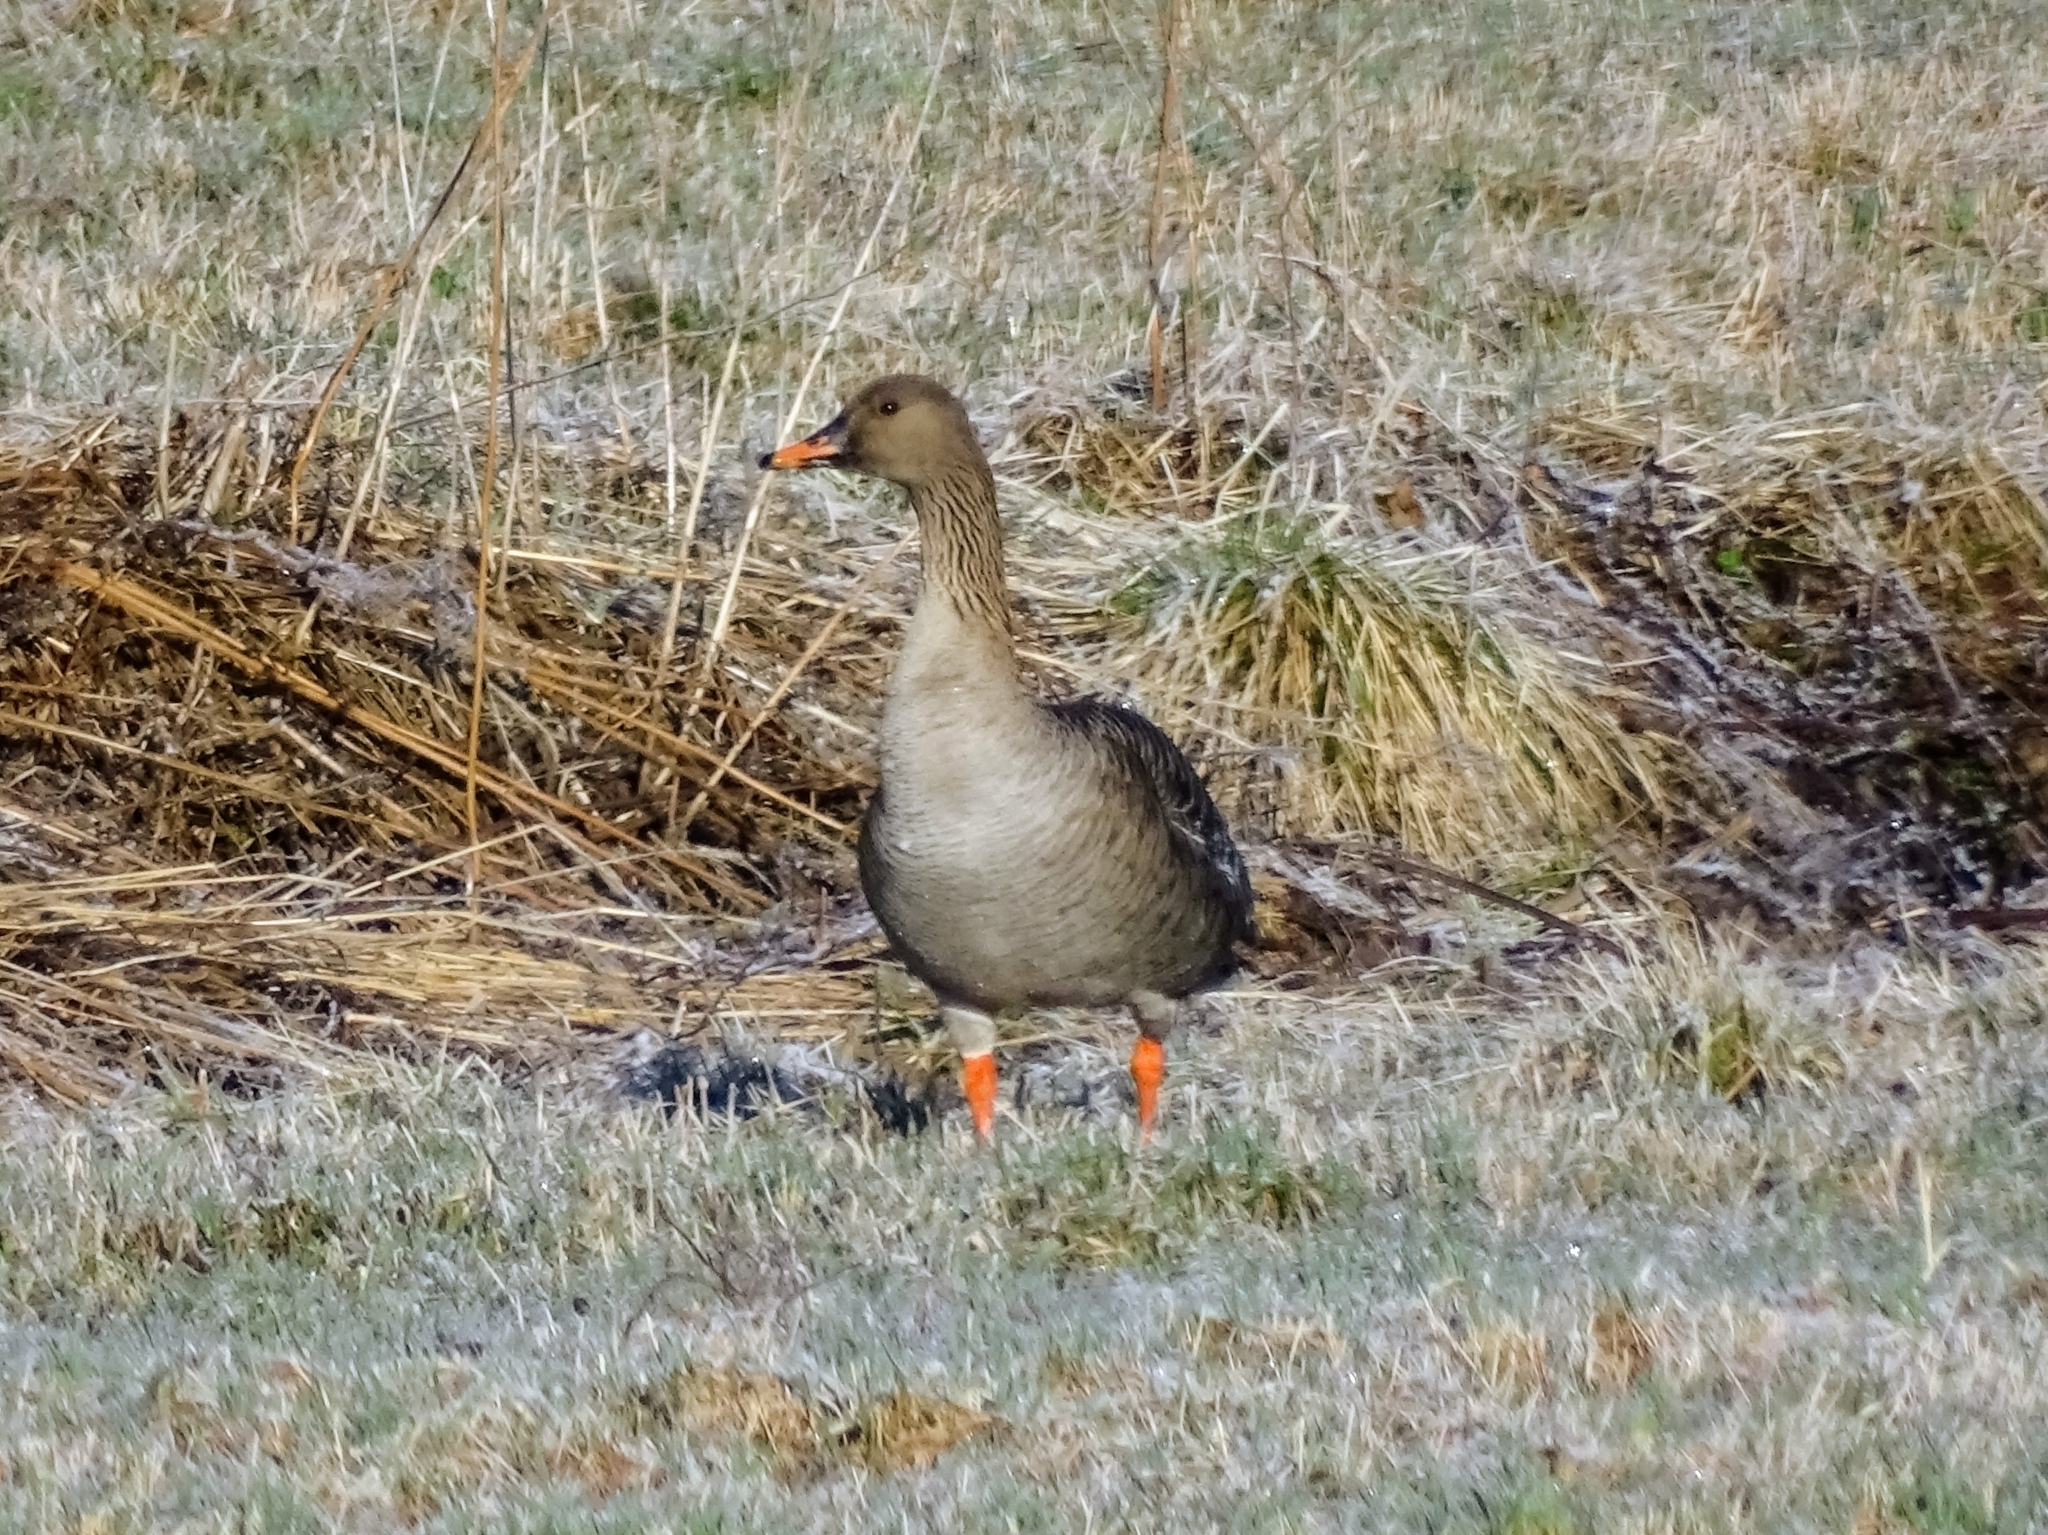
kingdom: Animalia
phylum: Chordata
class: Aves
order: Anseriformes
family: Anatidae
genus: Anser
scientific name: Anser fabalis
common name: Bean goose
